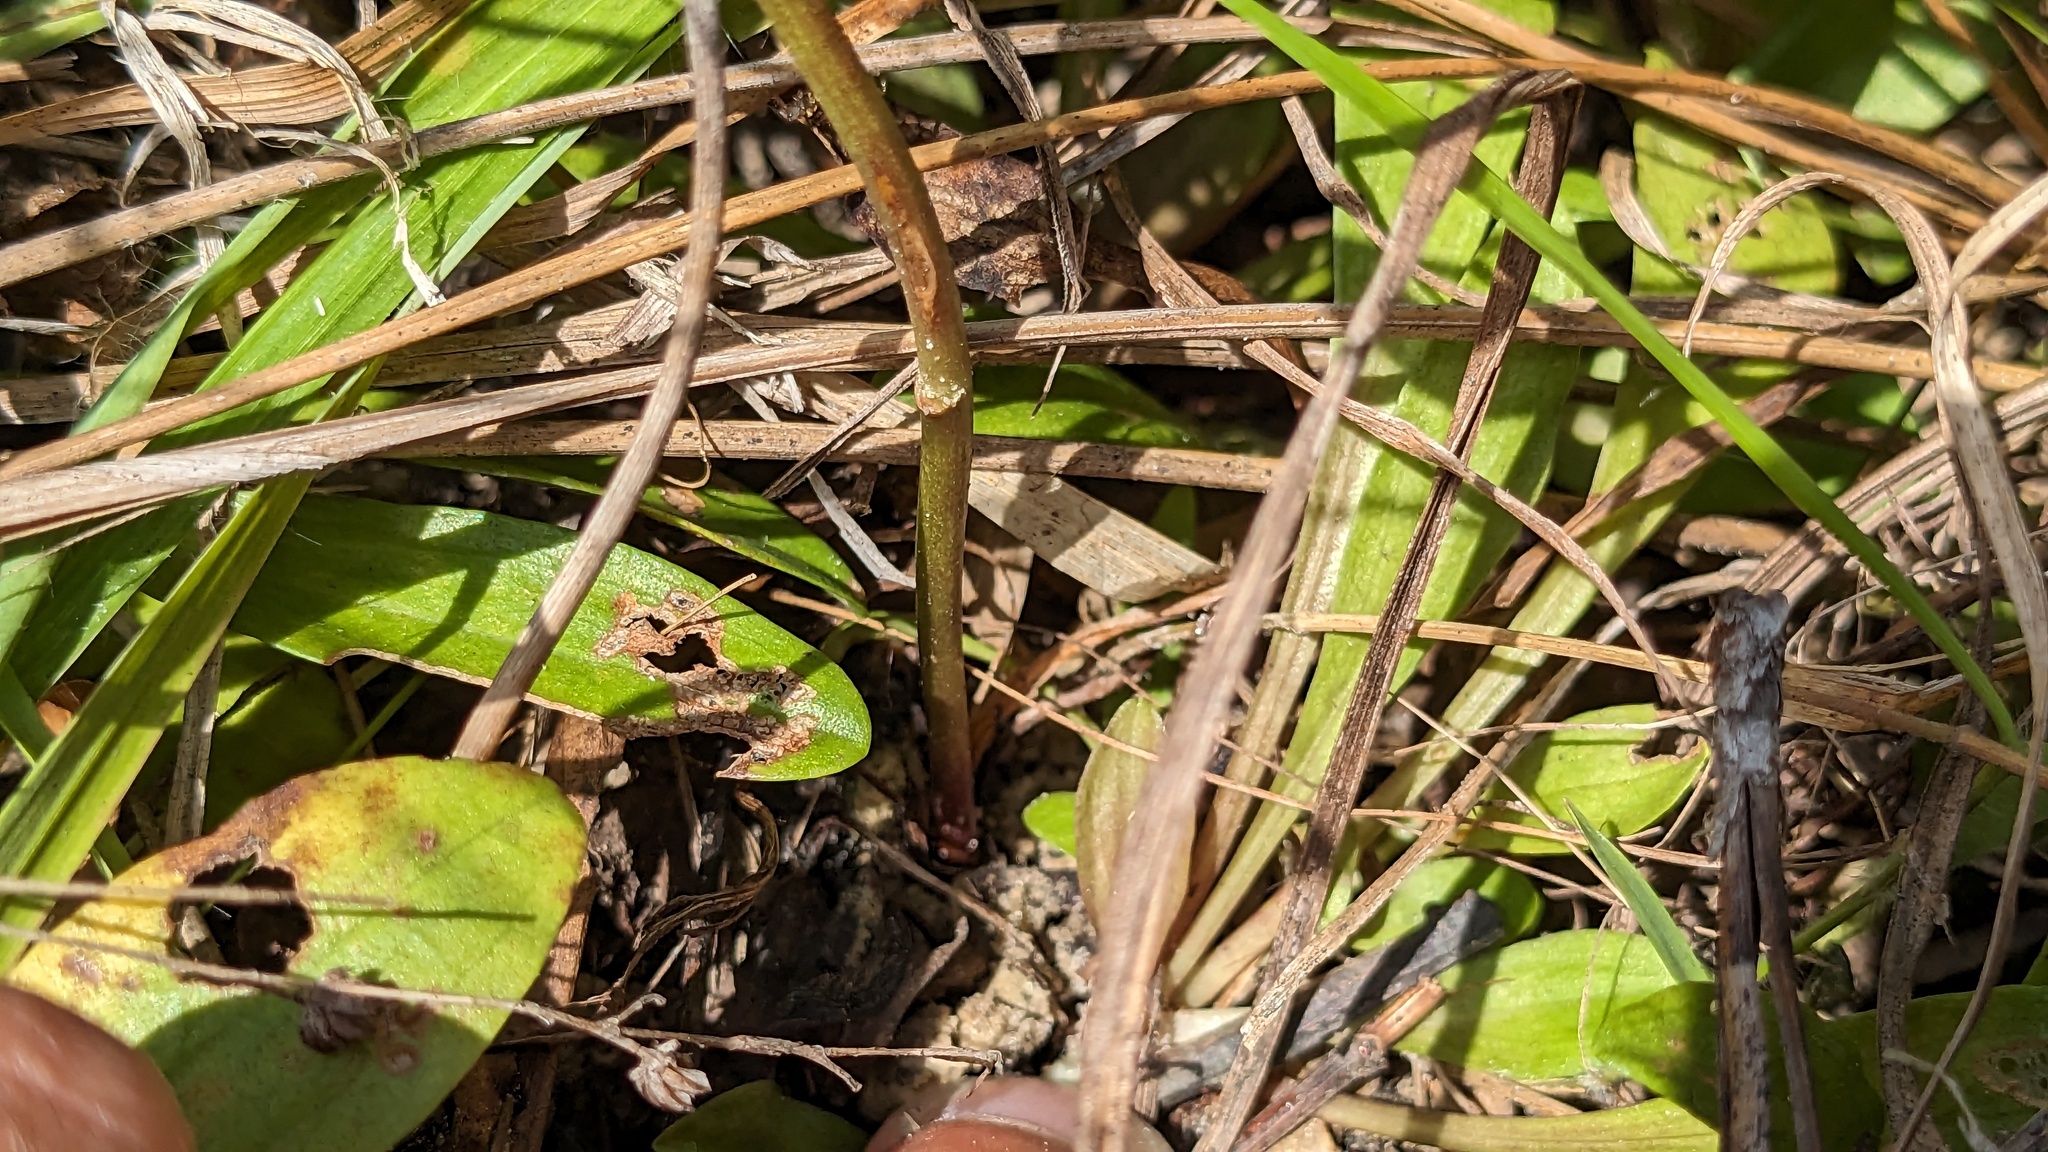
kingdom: Plantae
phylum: Tracheophyta
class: Magnoliopsida
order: Asterales
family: Asteraceae
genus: Bigelowia
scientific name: Bigelowia nudata
